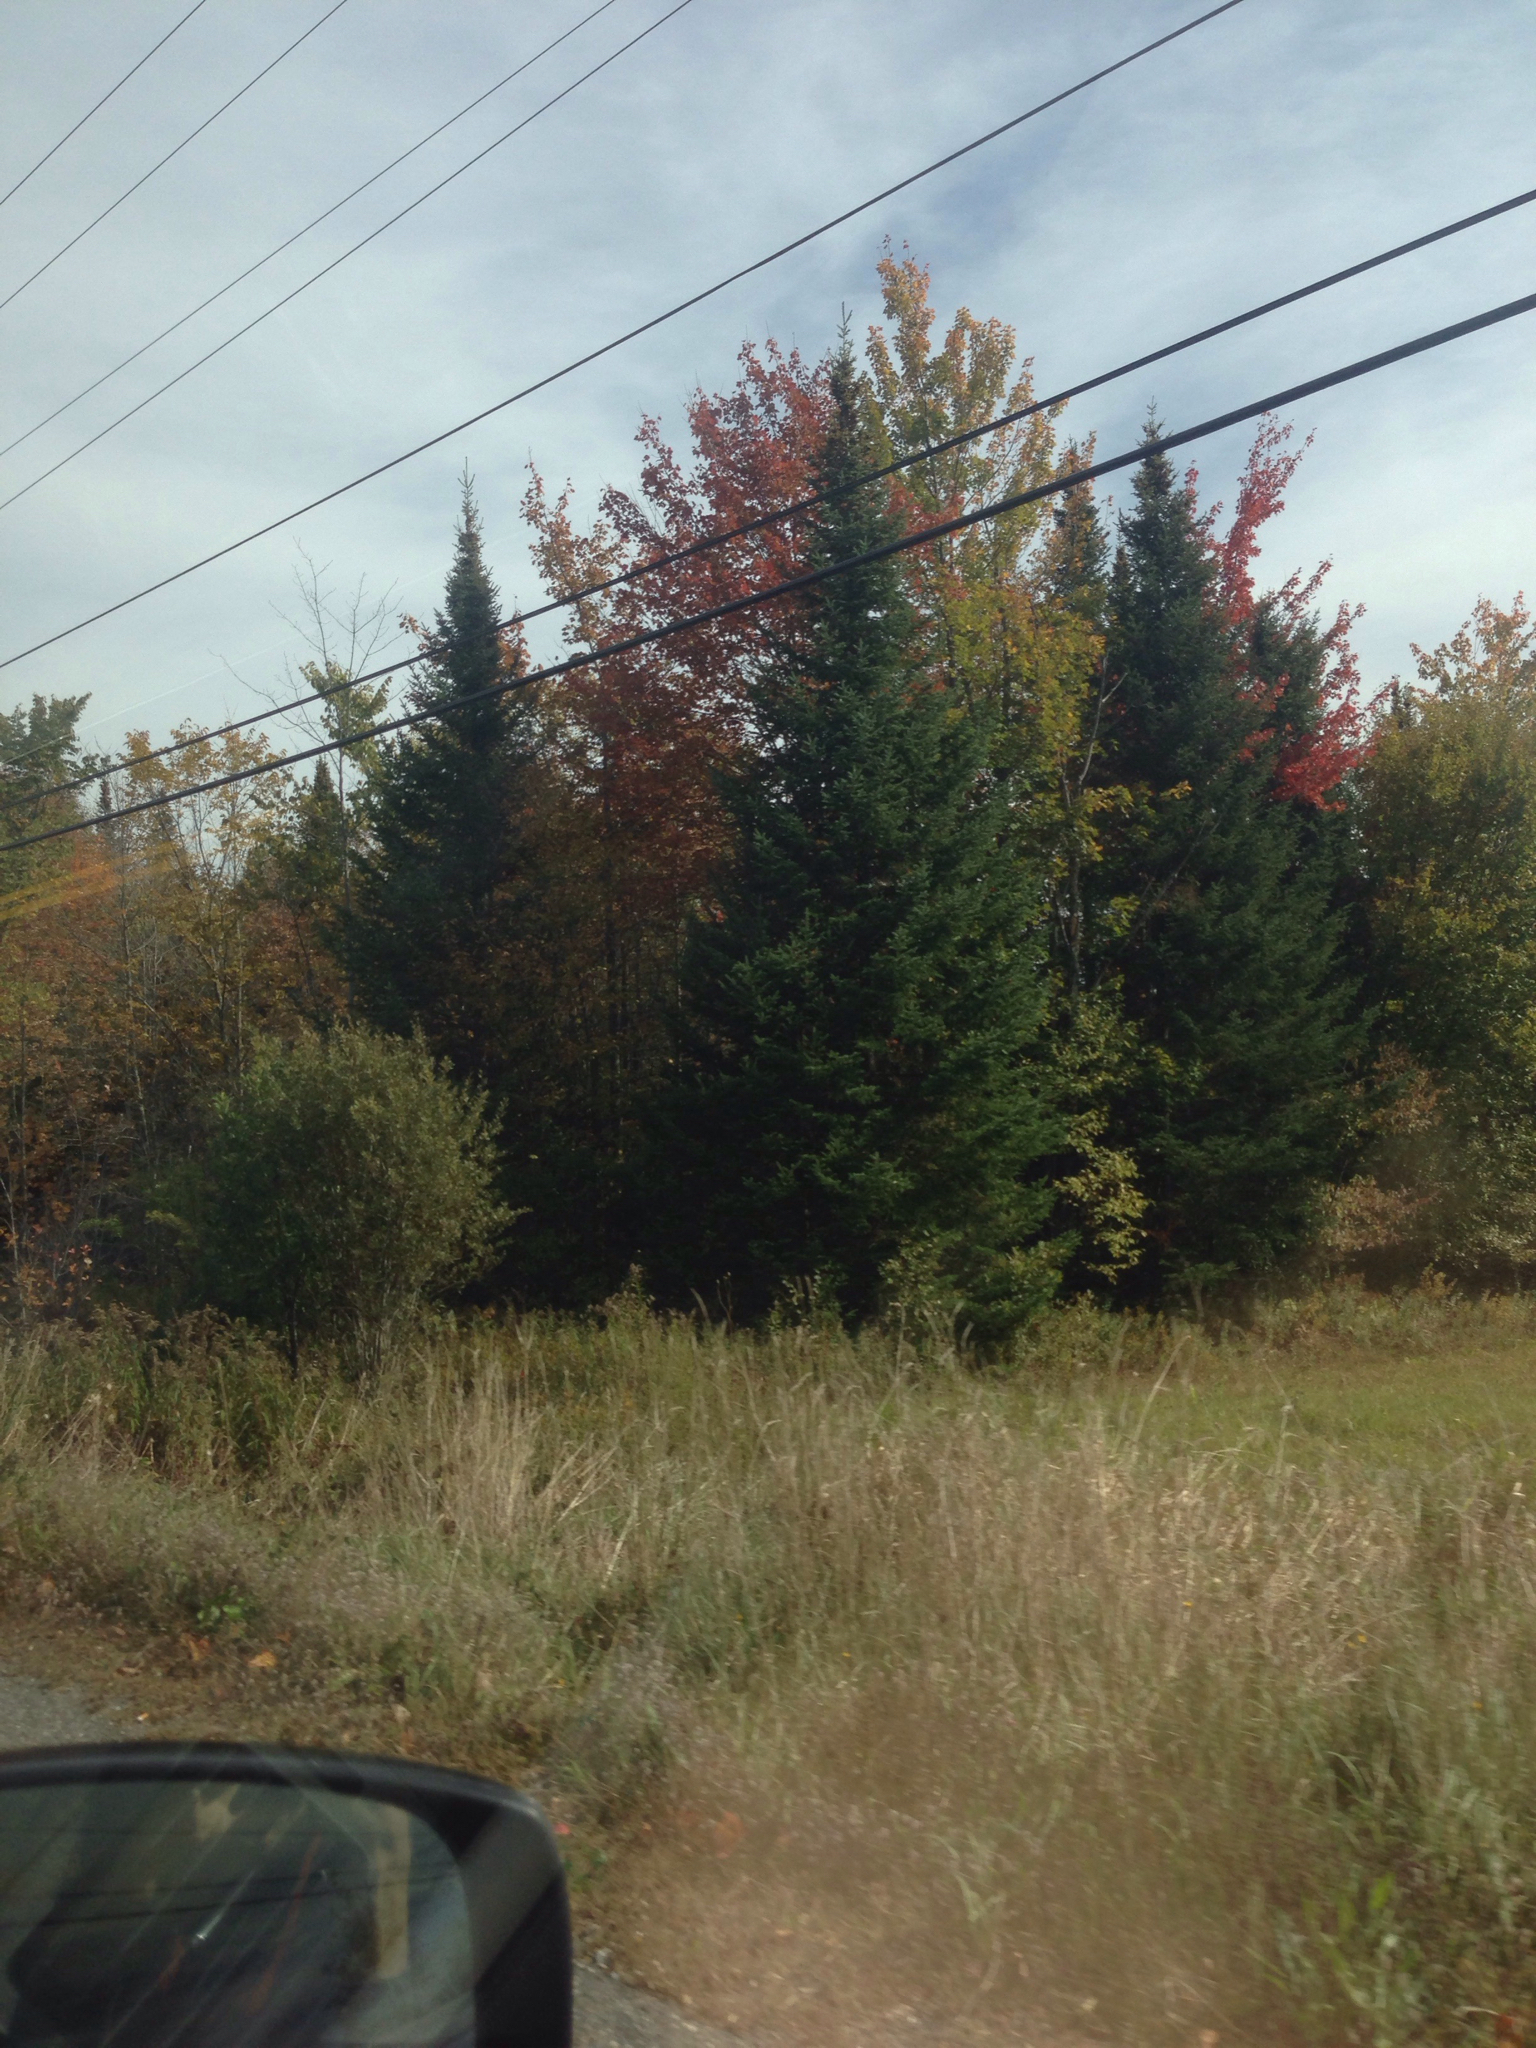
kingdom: Plantae
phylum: Tracheophyta
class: Pinopsida
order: Pinales
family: Pinaceae
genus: Abies
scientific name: Abies balsamea
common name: Balsam fir
